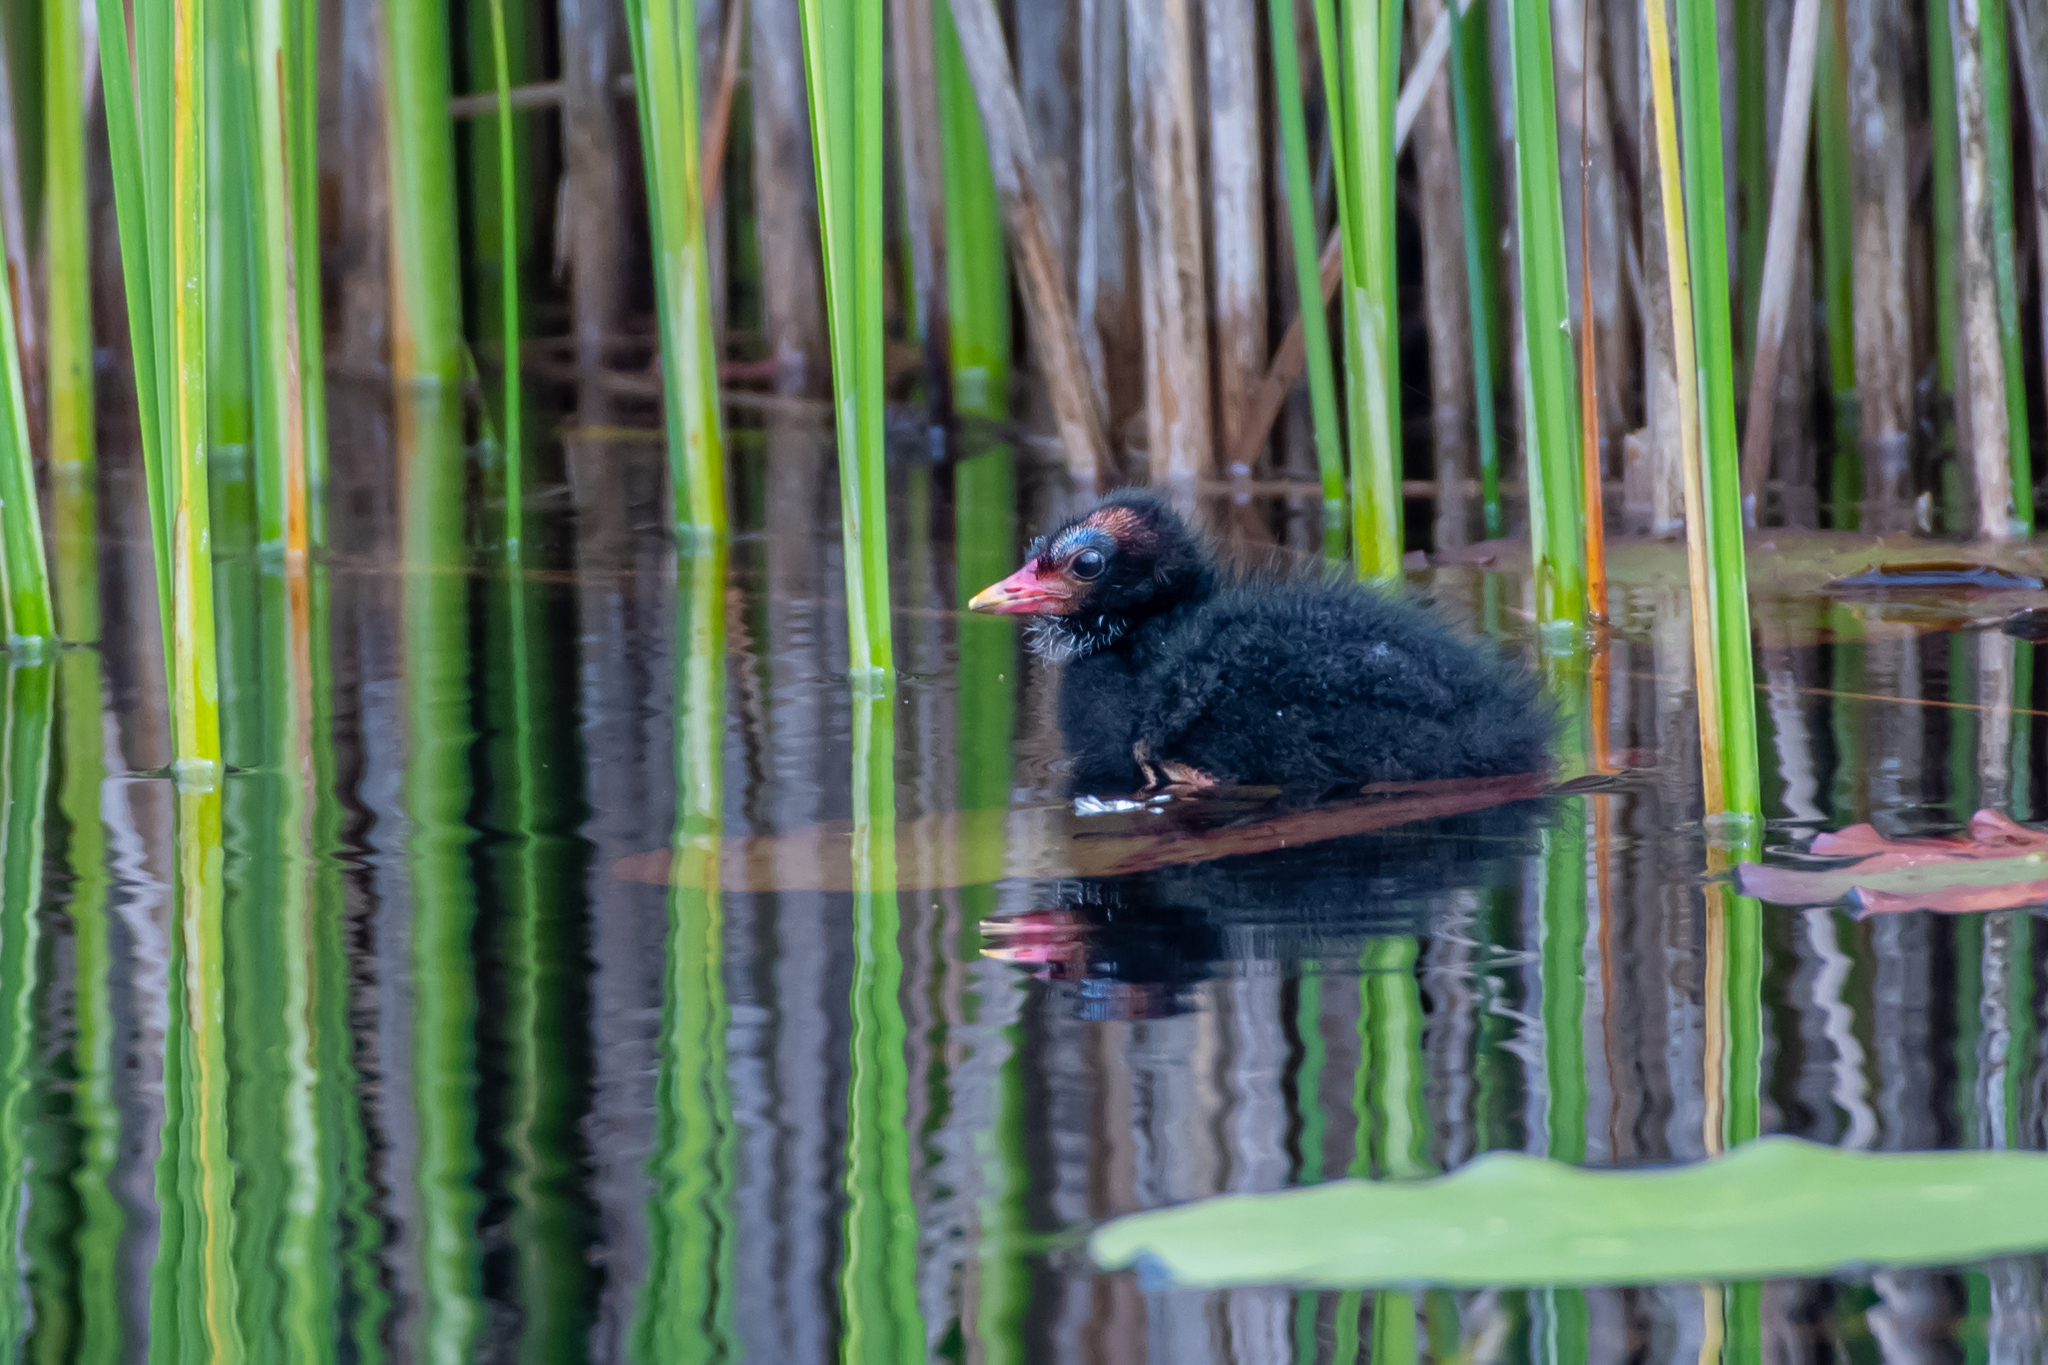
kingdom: Animalia
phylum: Chordata
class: Aves
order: Gruiformes
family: Rallidae
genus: Gallinula
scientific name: Gallinula chloropus
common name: Common moorhen
